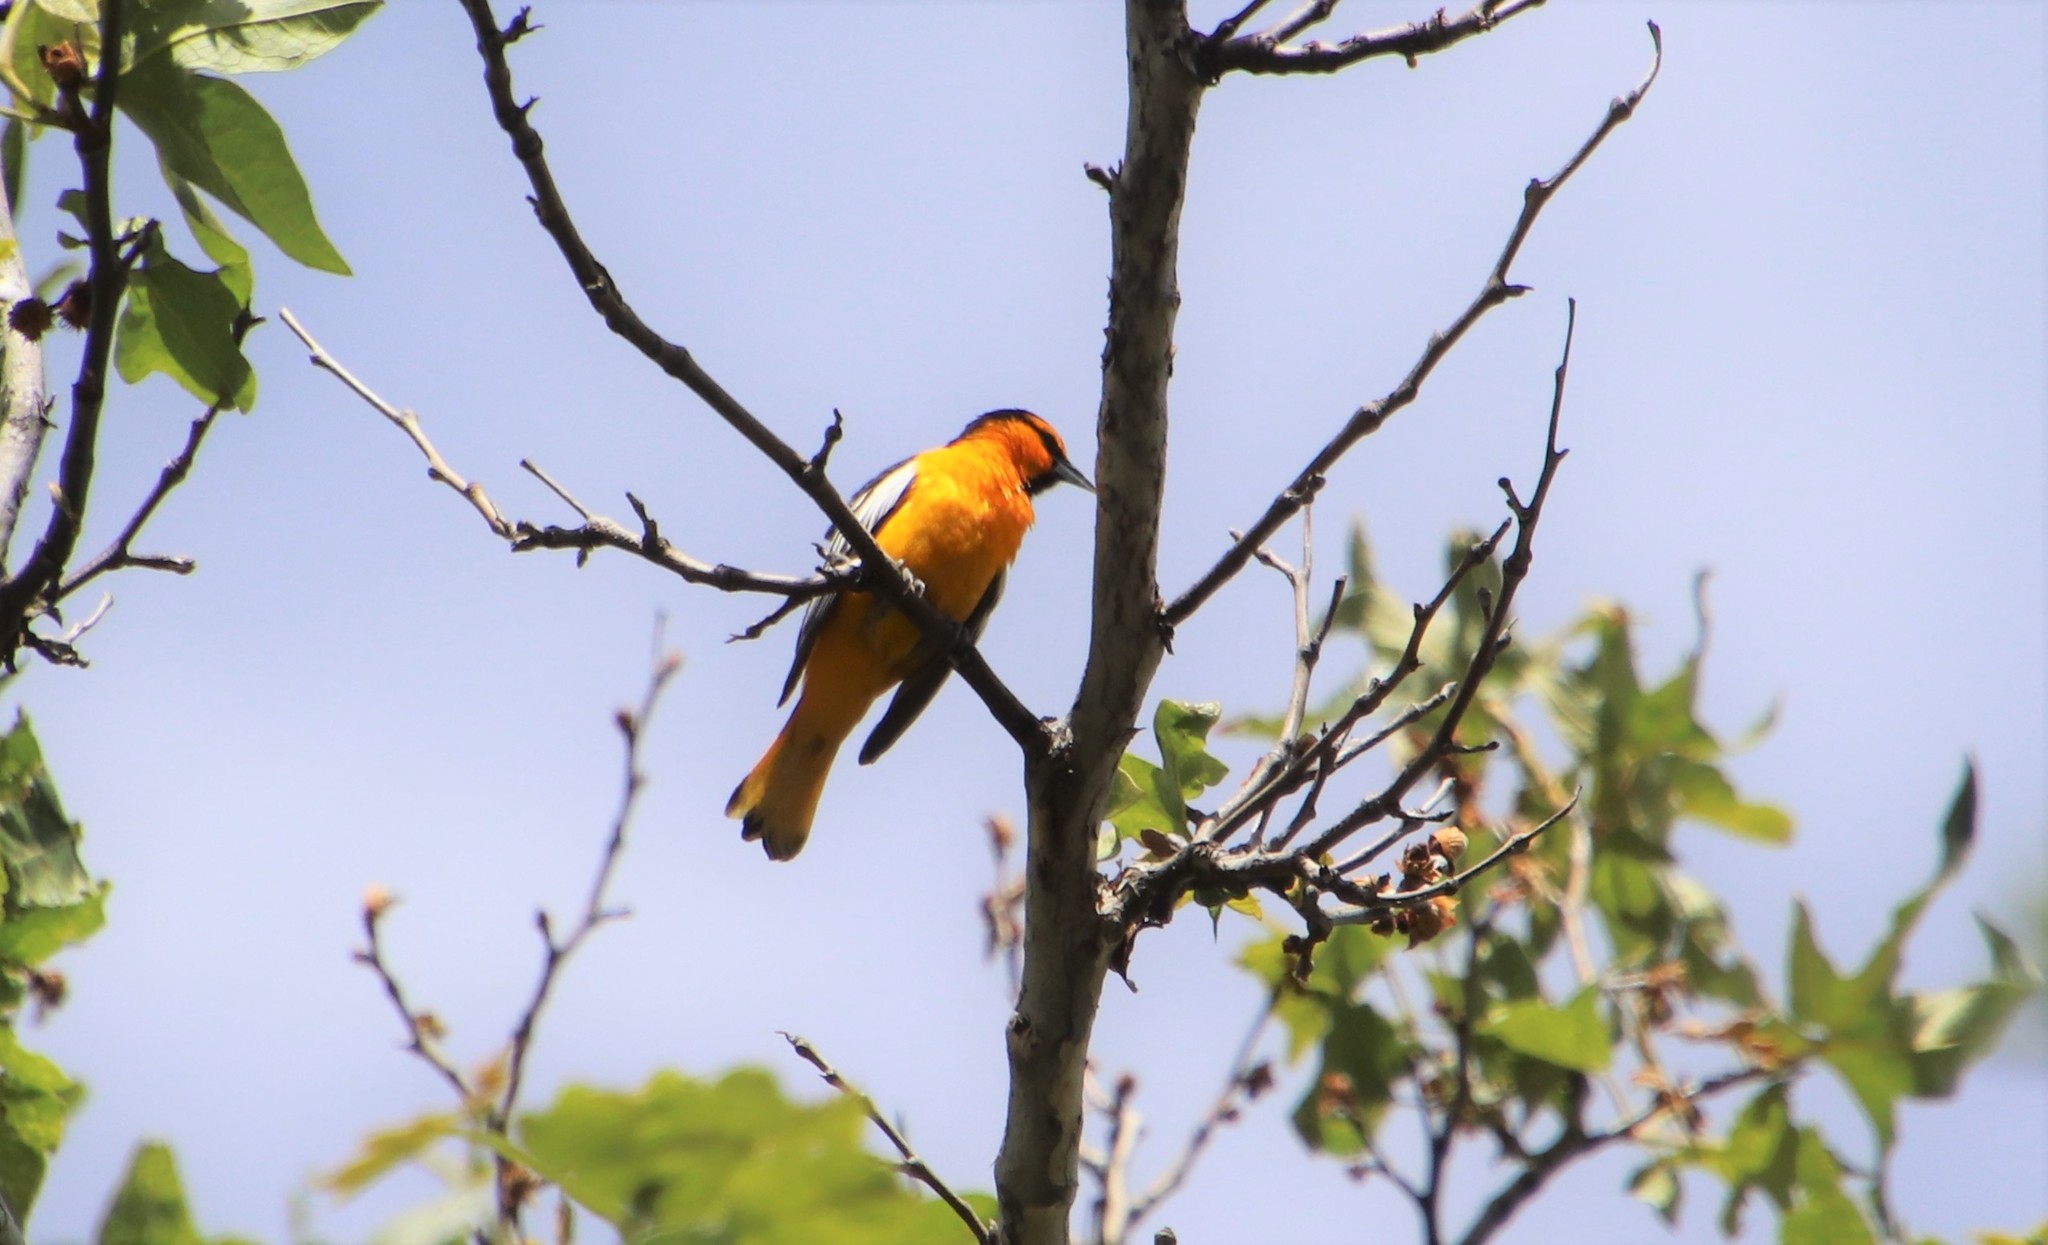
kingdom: Animalia
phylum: Chordata
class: Aves
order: Passeriformes
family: Icteridae
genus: Icterus
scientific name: Icterus bullockii
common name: Bullock's oriole
